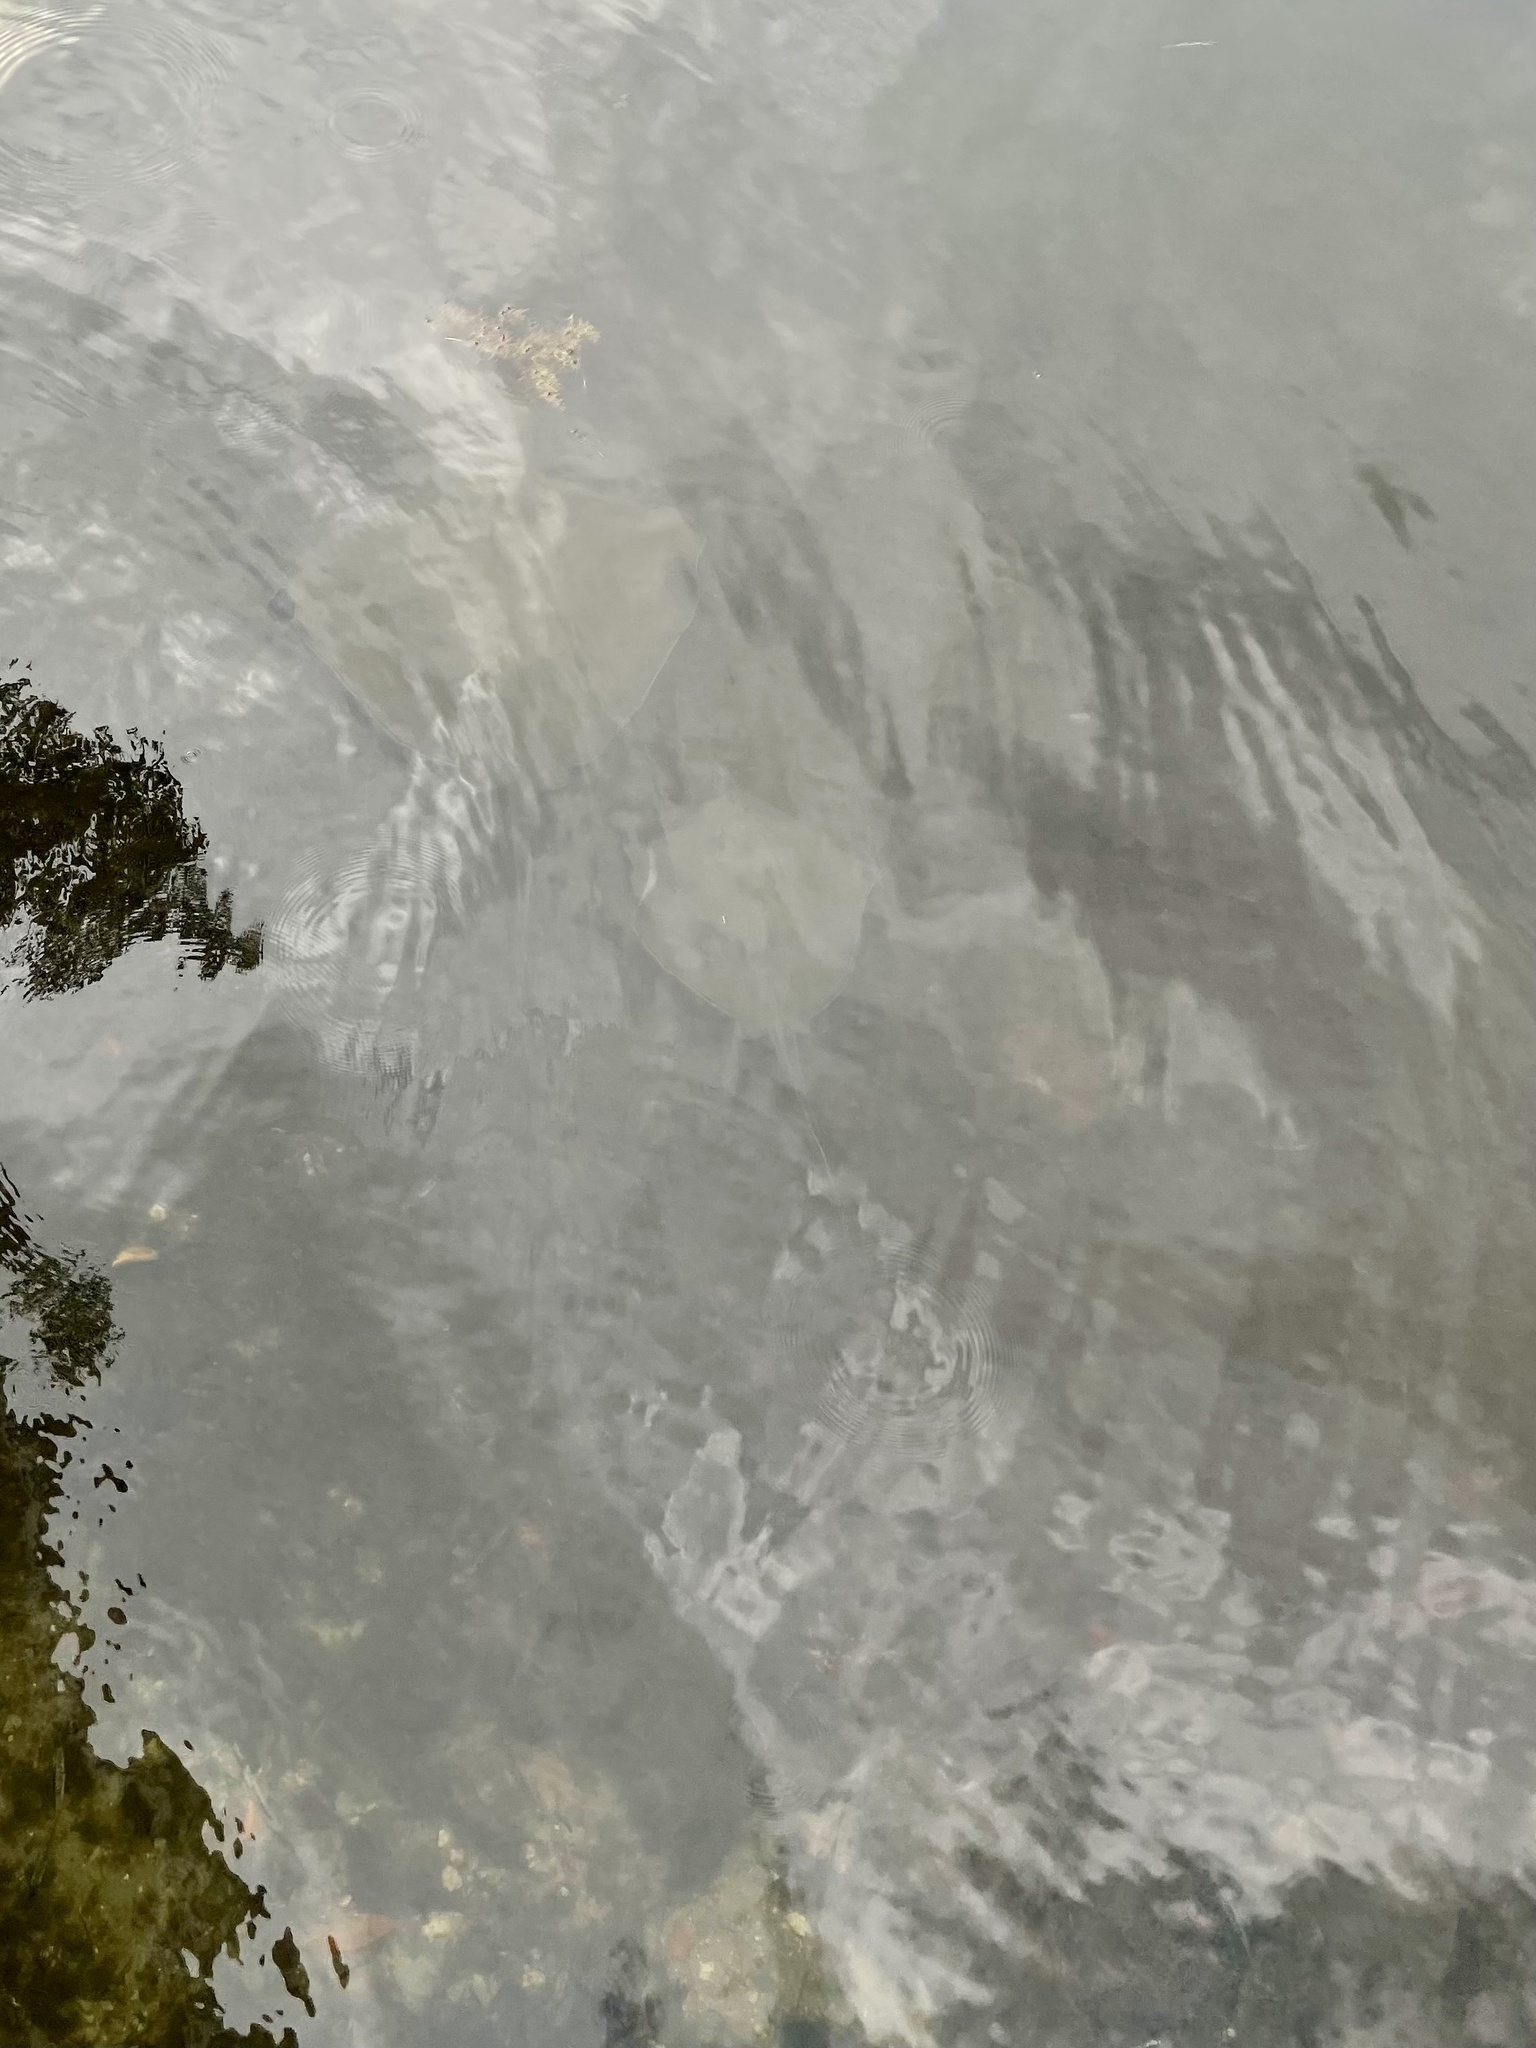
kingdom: Animalia
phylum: Chordata
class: Elasmobranchii
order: Myliobatiformes
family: Dasyatidae
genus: Hypanus
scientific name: Hypanus americanus
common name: Southern stingray
